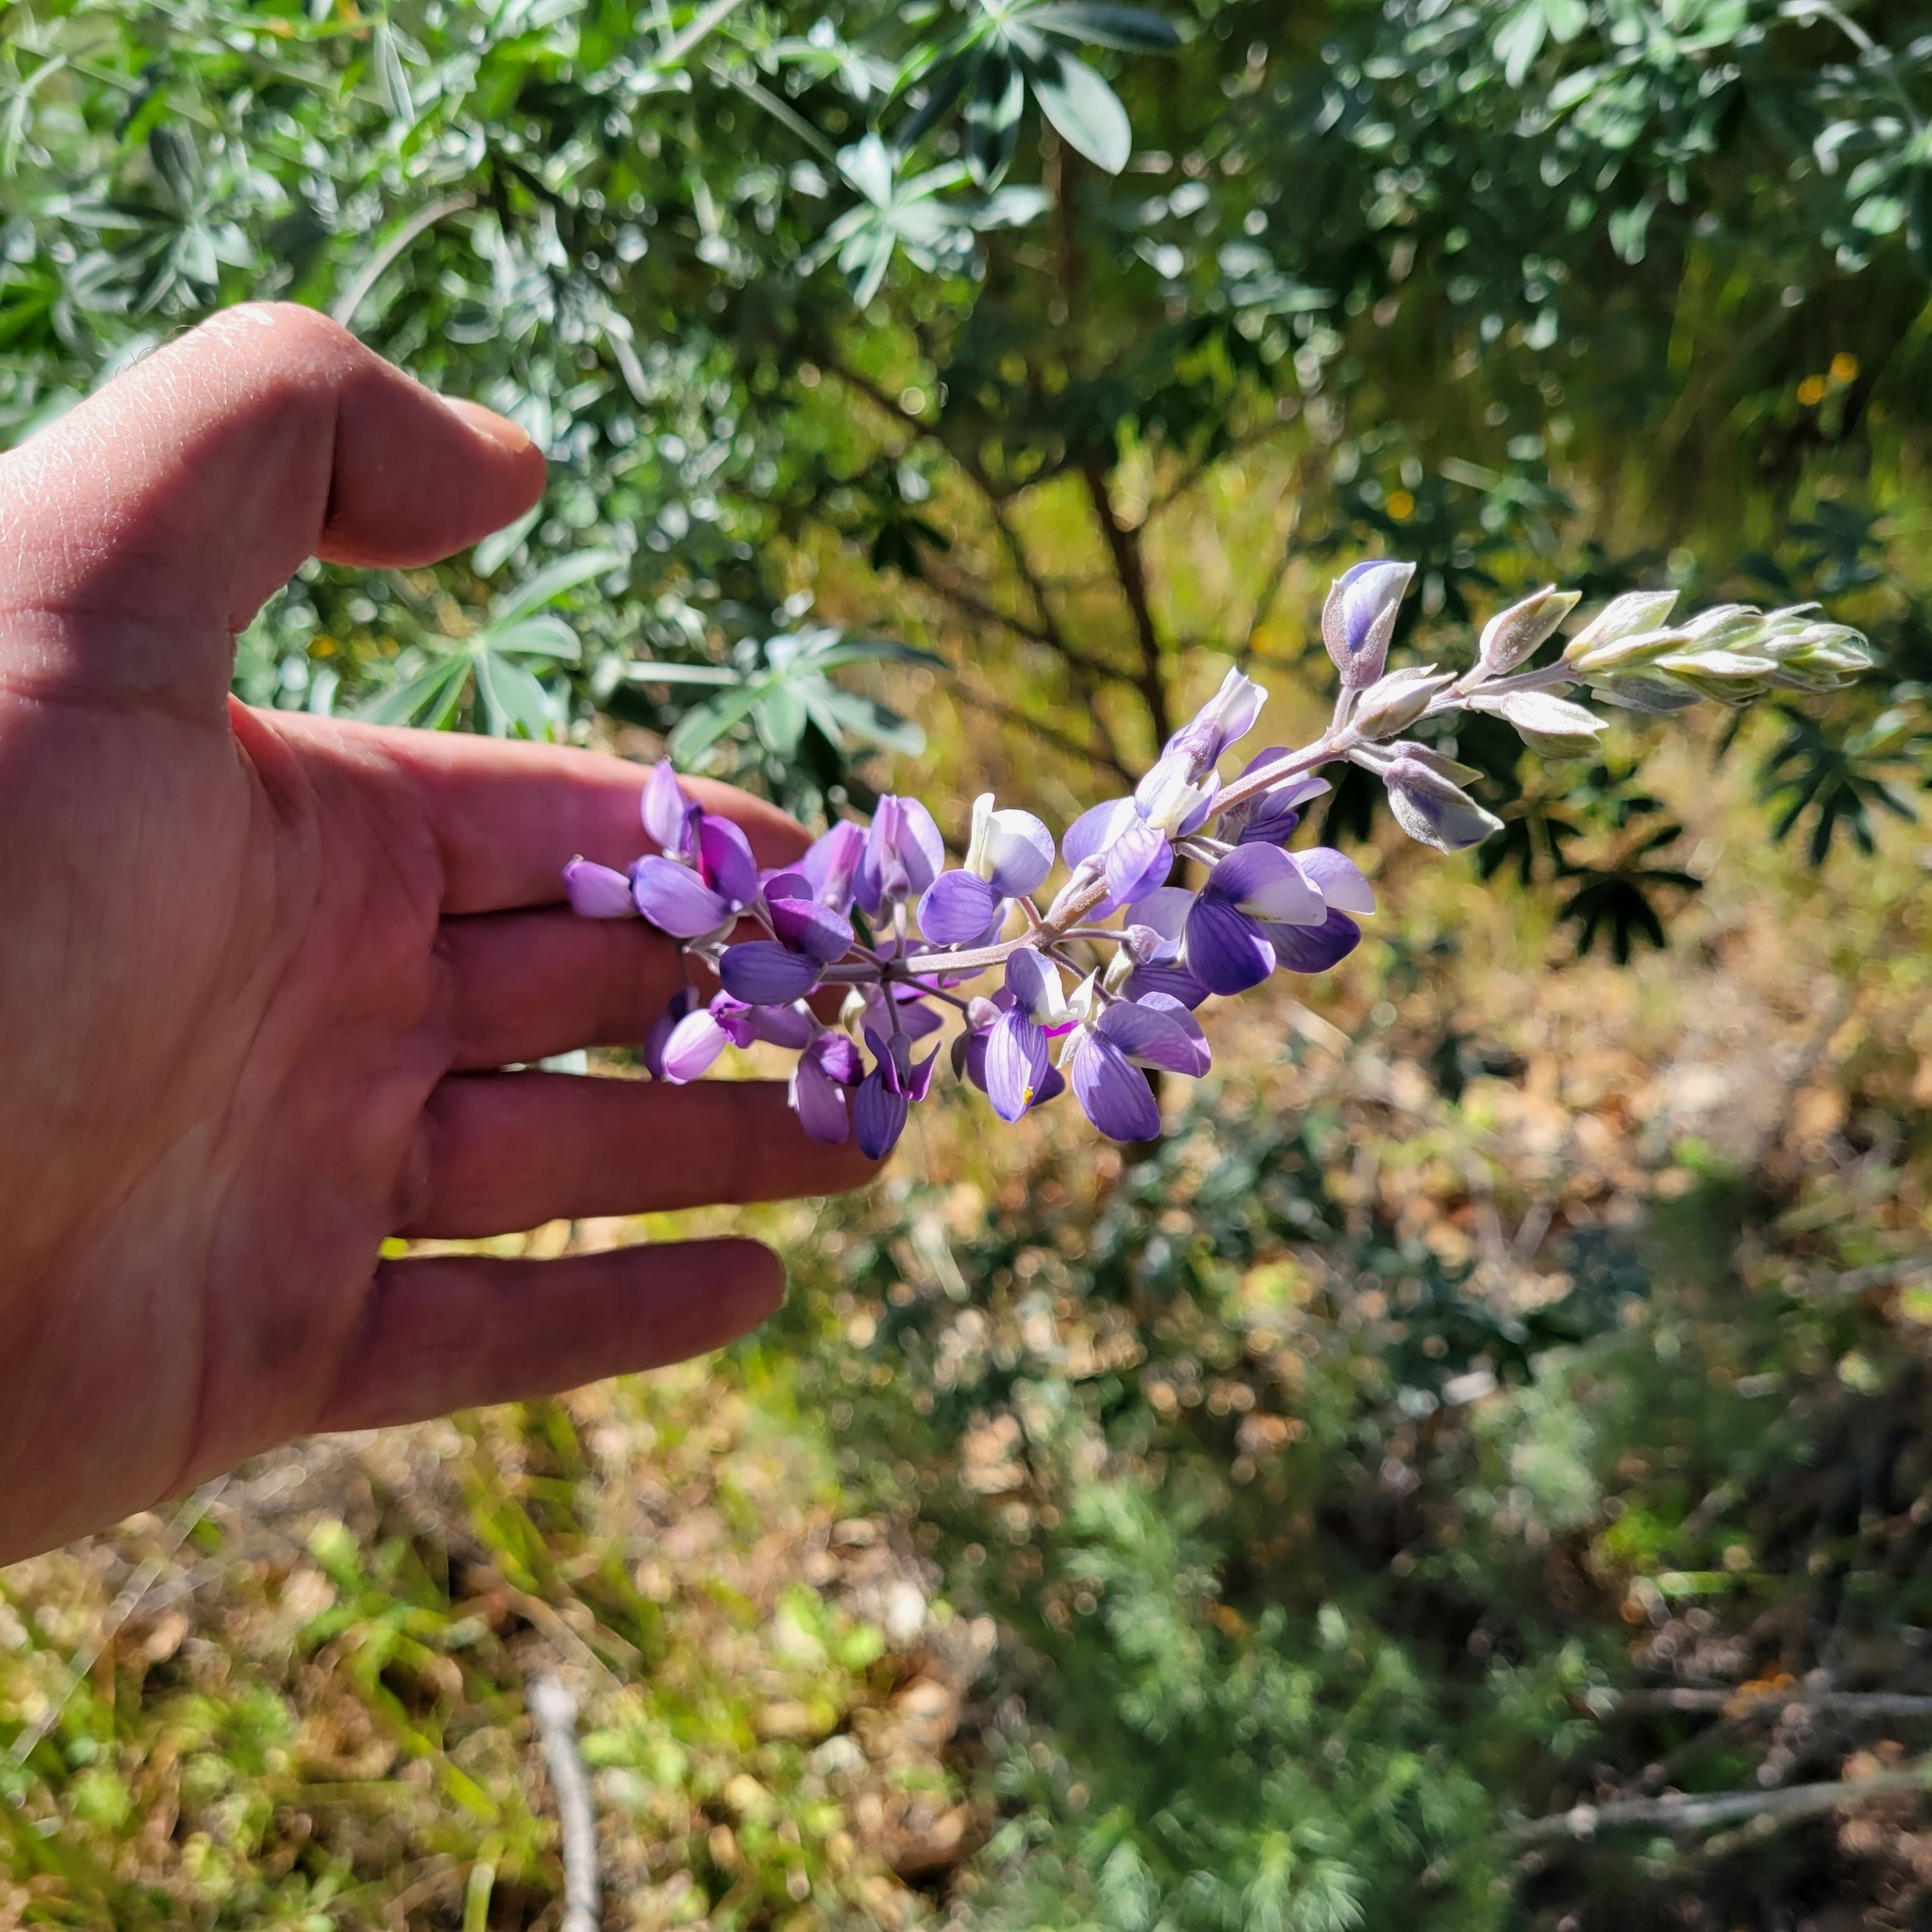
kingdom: Plantae
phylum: Tracheophyta
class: Magnoliopsida
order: Fabales
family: Fabaceae
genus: Lupinus
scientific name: Lupinus albifrons
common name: Foothill lupine
